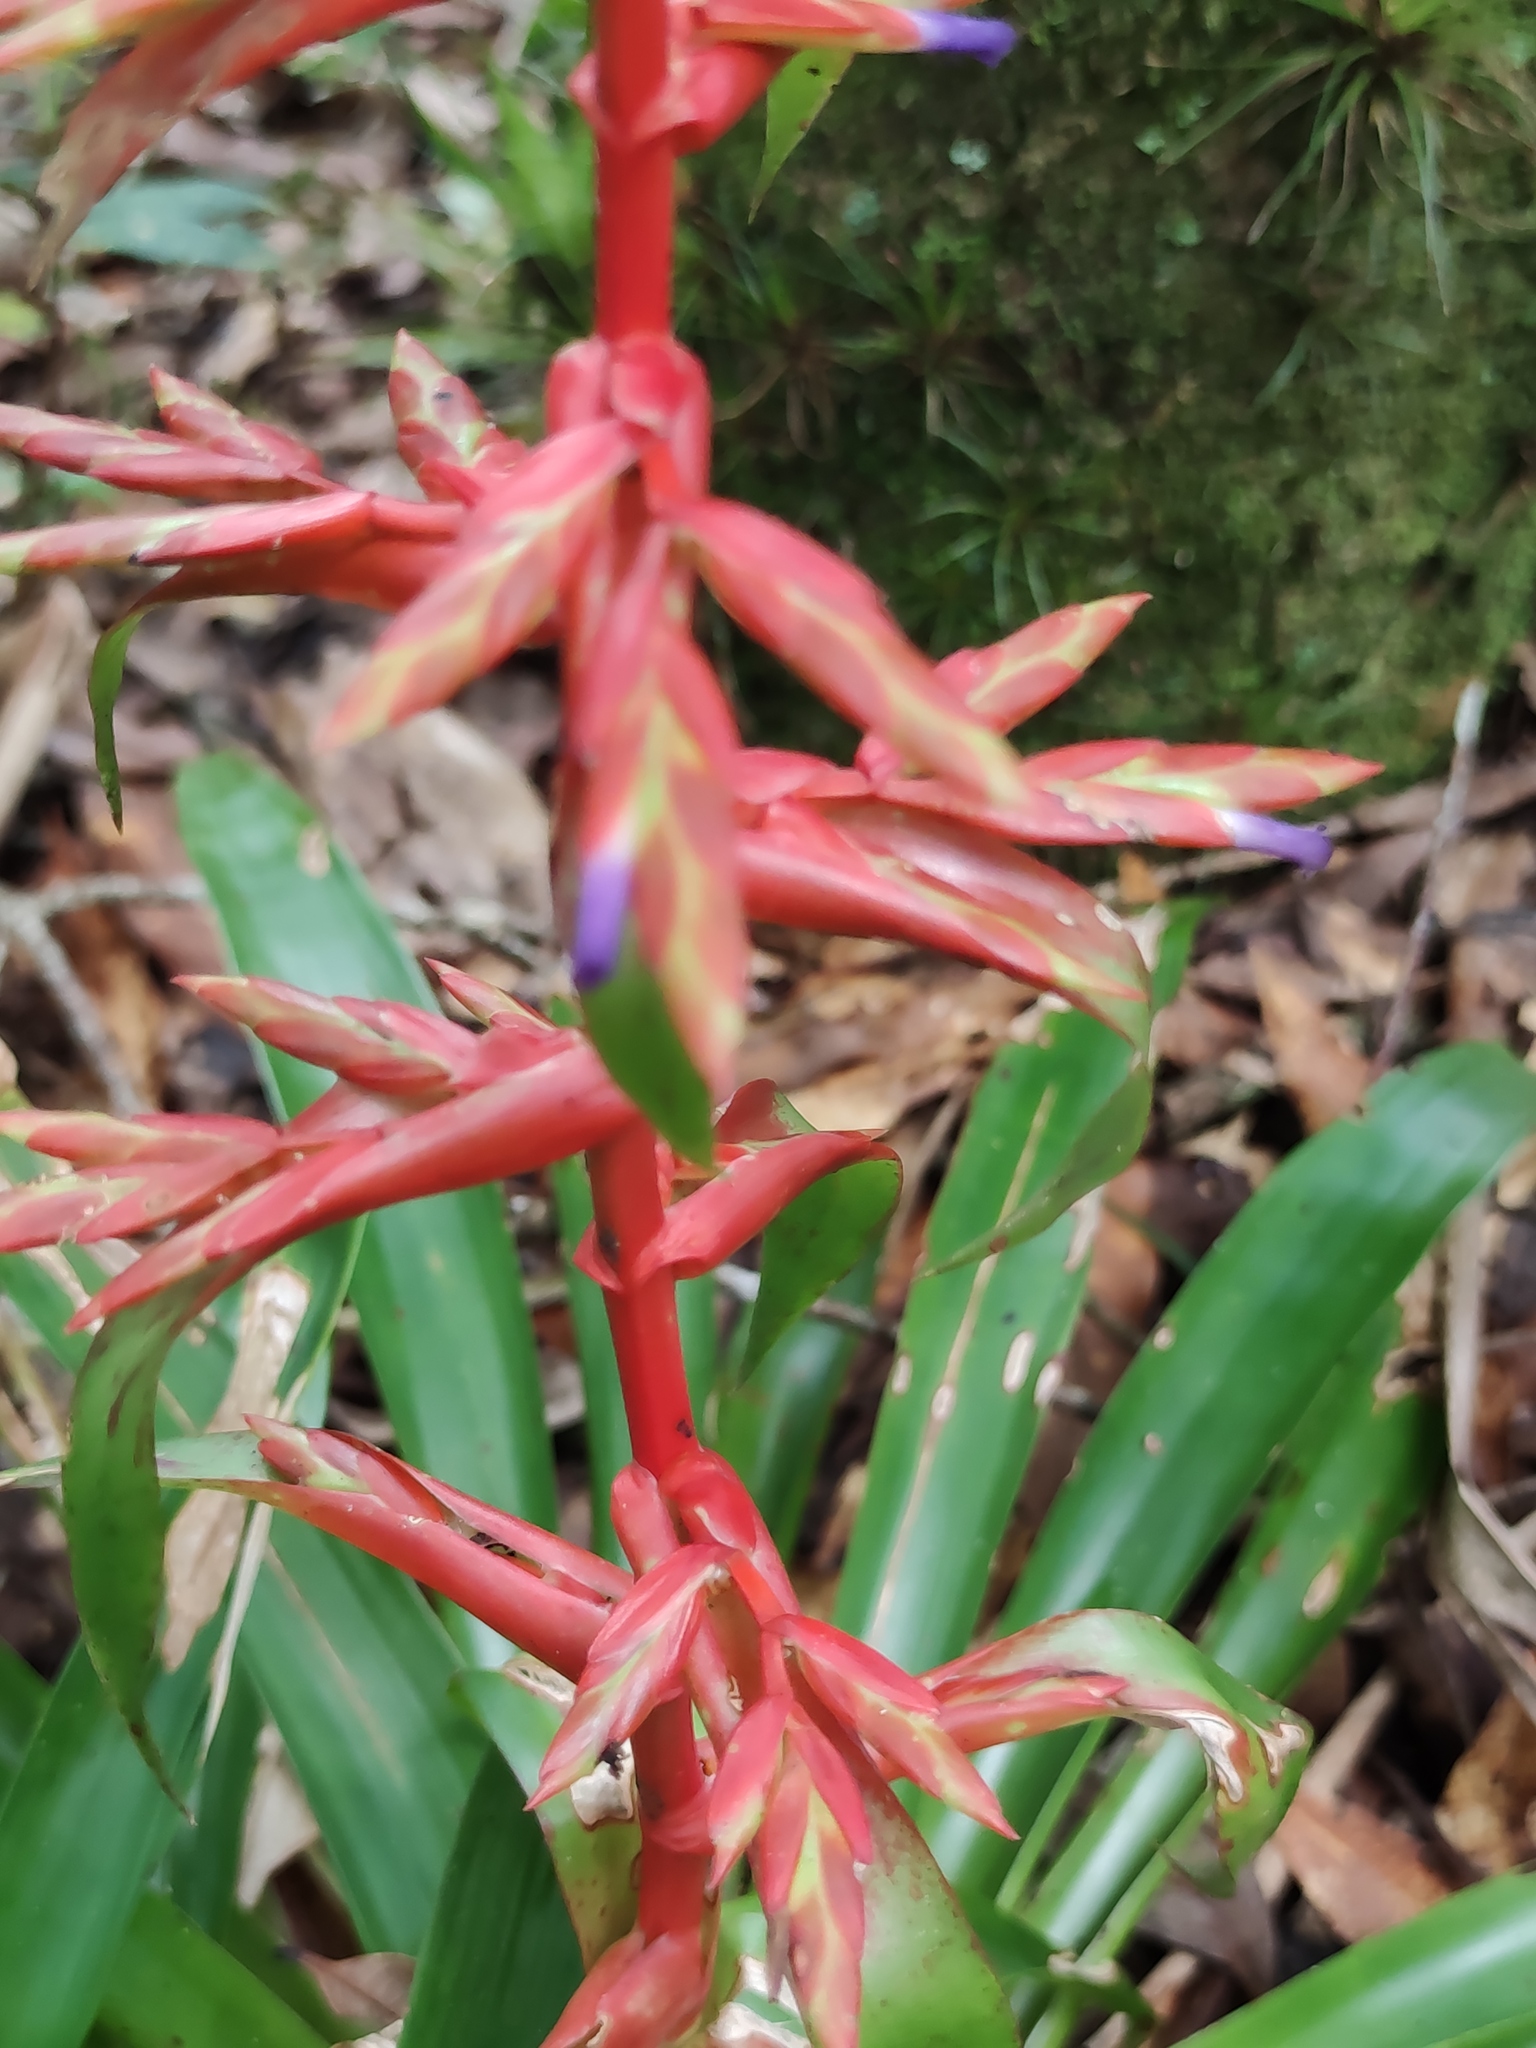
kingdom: Plantae
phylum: Tracheophyta
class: Liliopsida
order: Poales
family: Bromeliaceae
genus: Tillandsia
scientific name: Tillandsia guatemalensis
